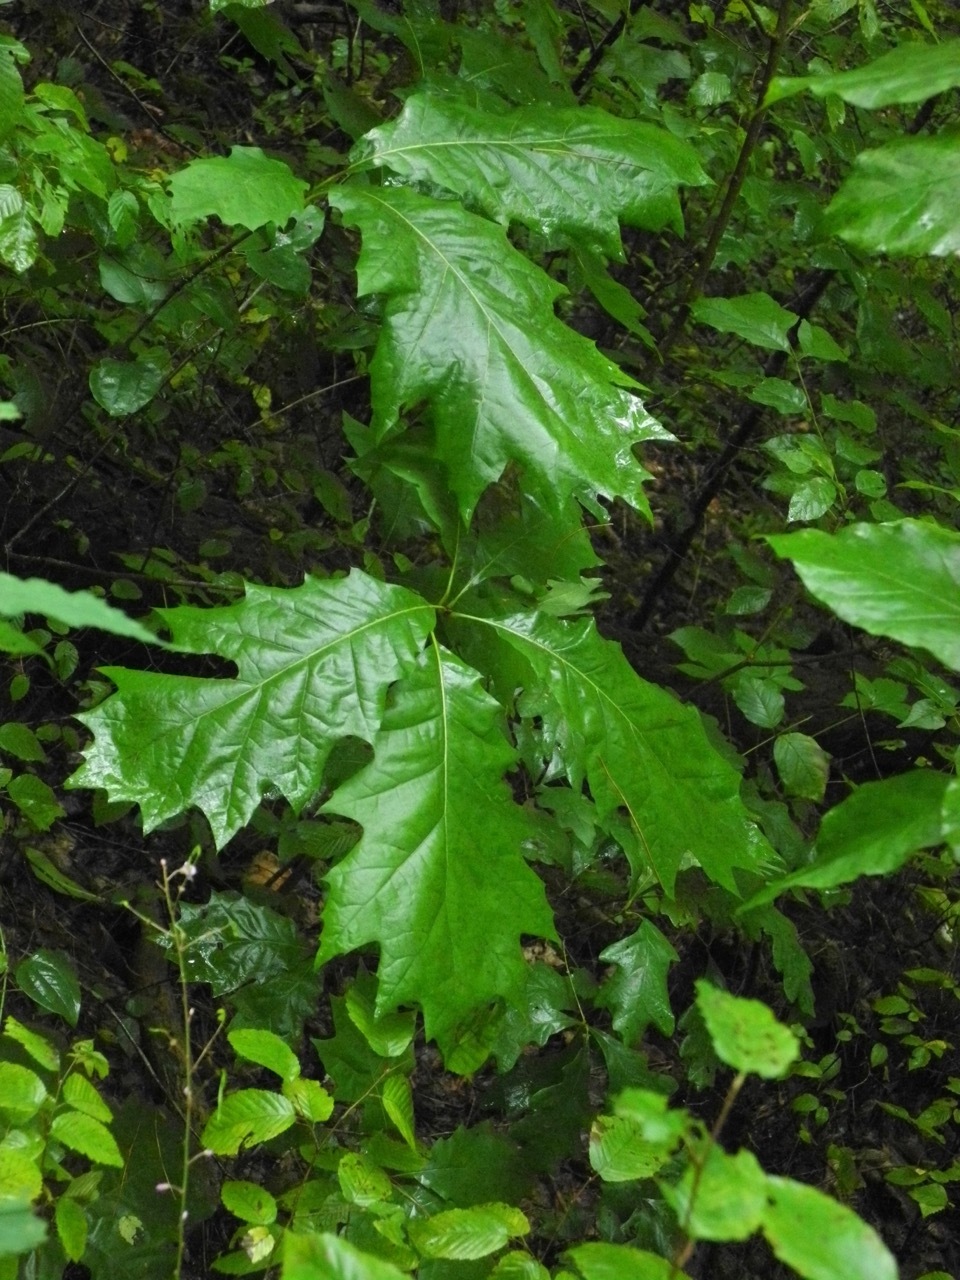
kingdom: Plantae
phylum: Tracheophyta
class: Magnoliopsida
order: Fagales
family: Fagaceae
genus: Quercus
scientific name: Quercus velutina
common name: Black oak
